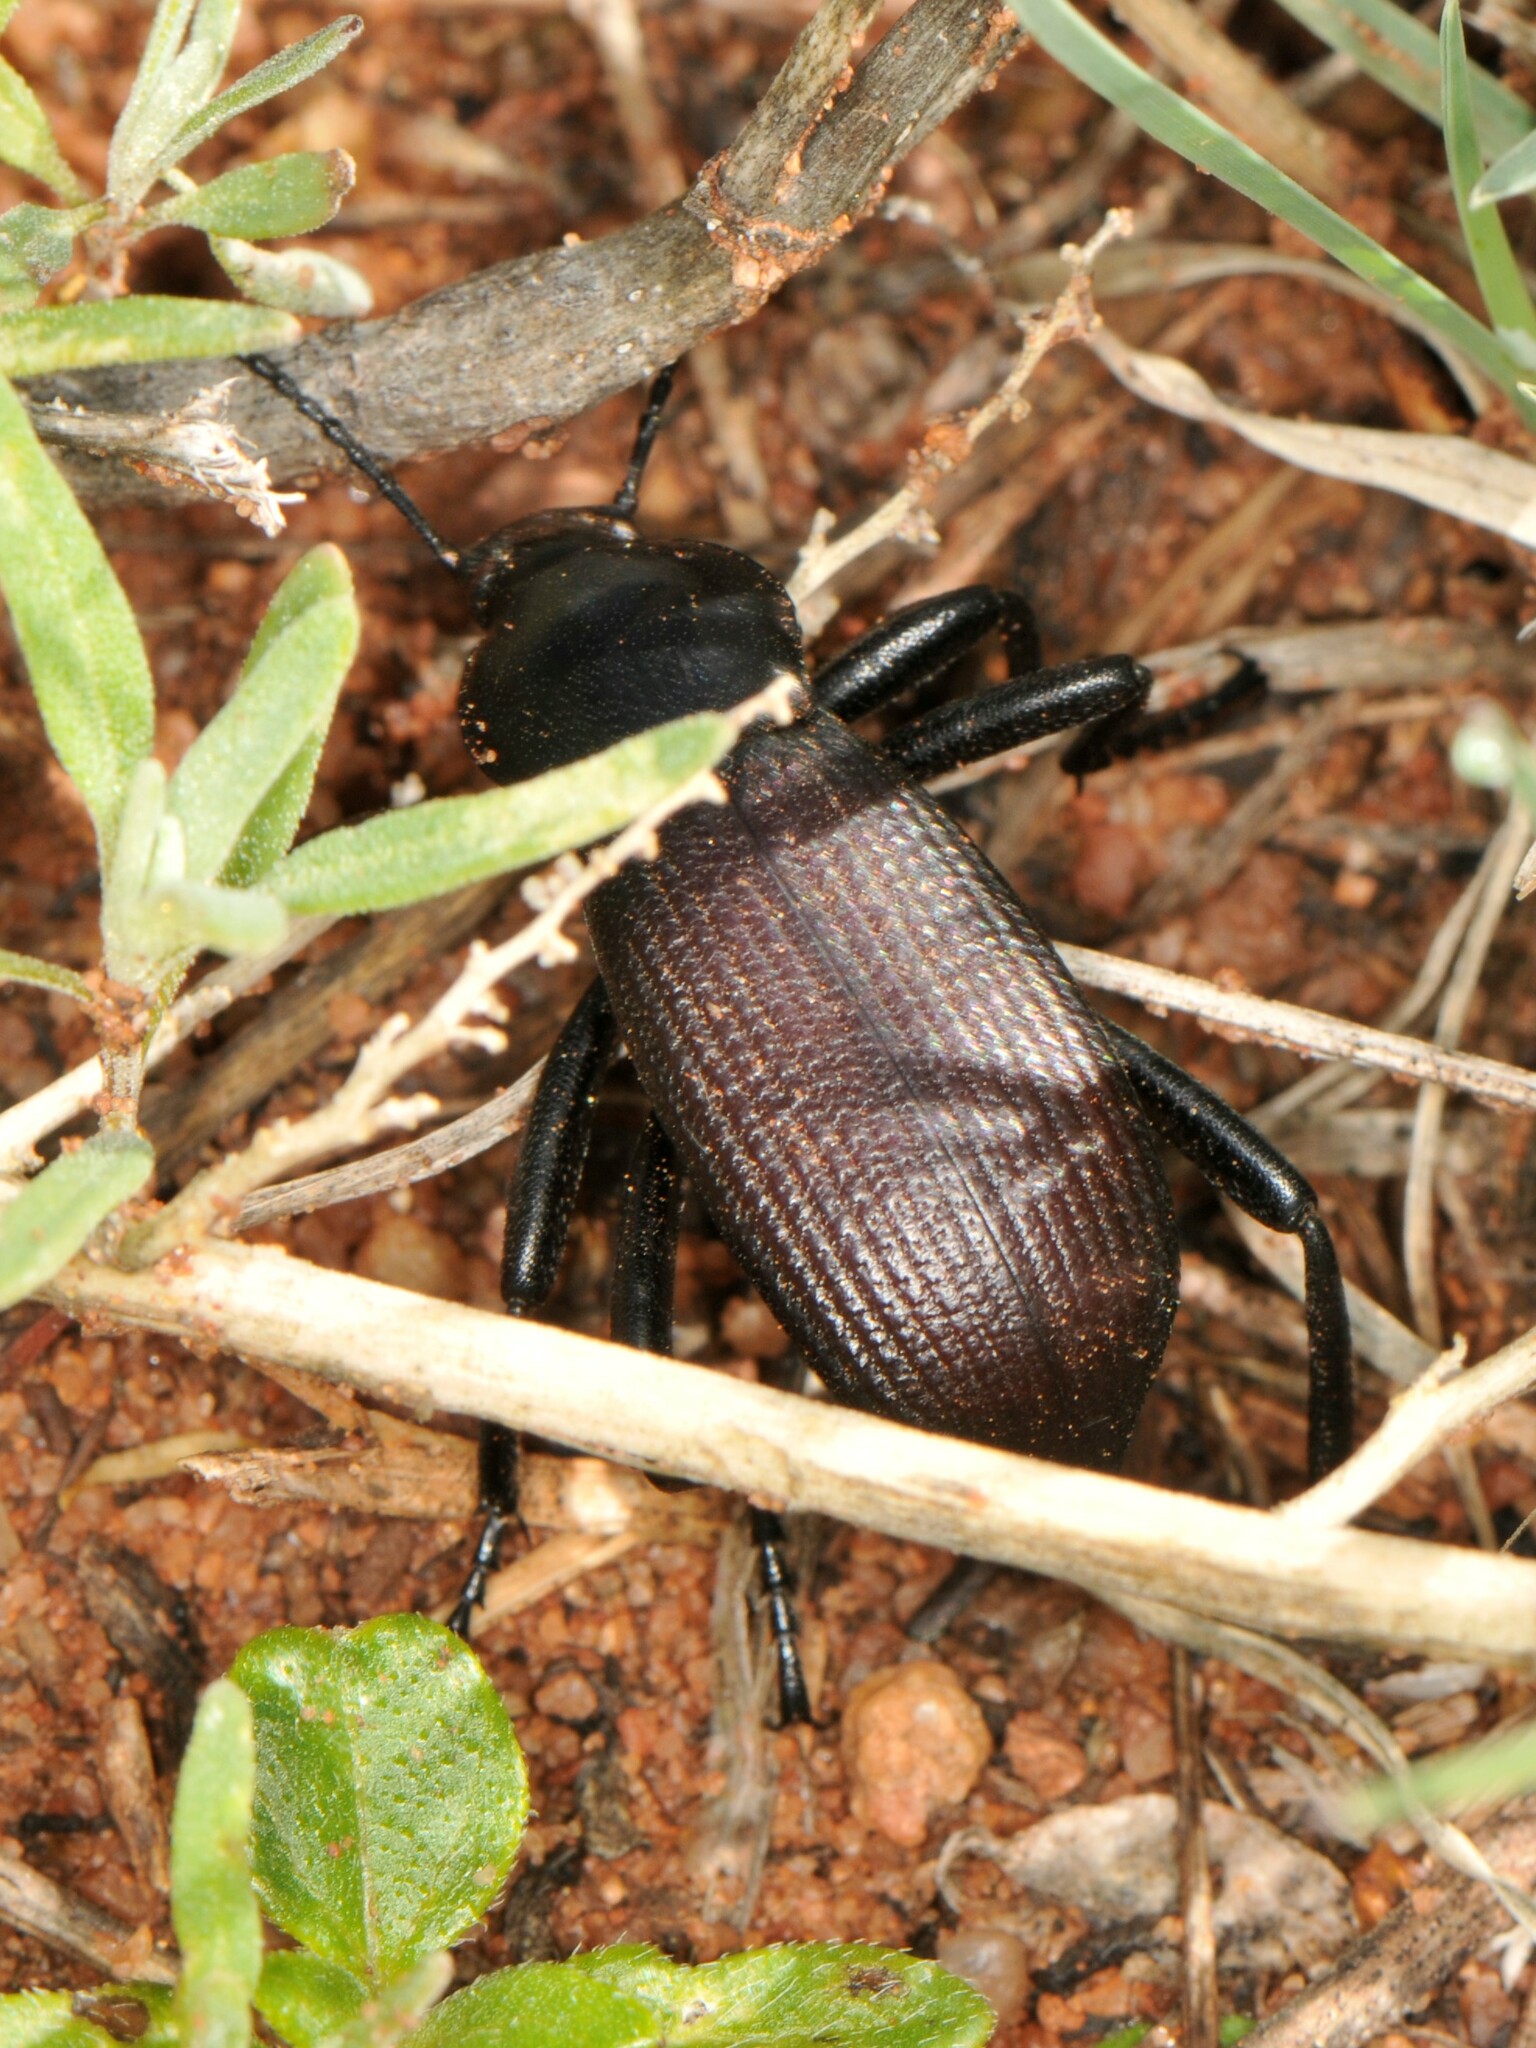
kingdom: Animalia
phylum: Arthropoda
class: Insecta
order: Coleoptera
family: Tenebrionidae
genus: Eleodes
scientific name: Eleodes obscura
